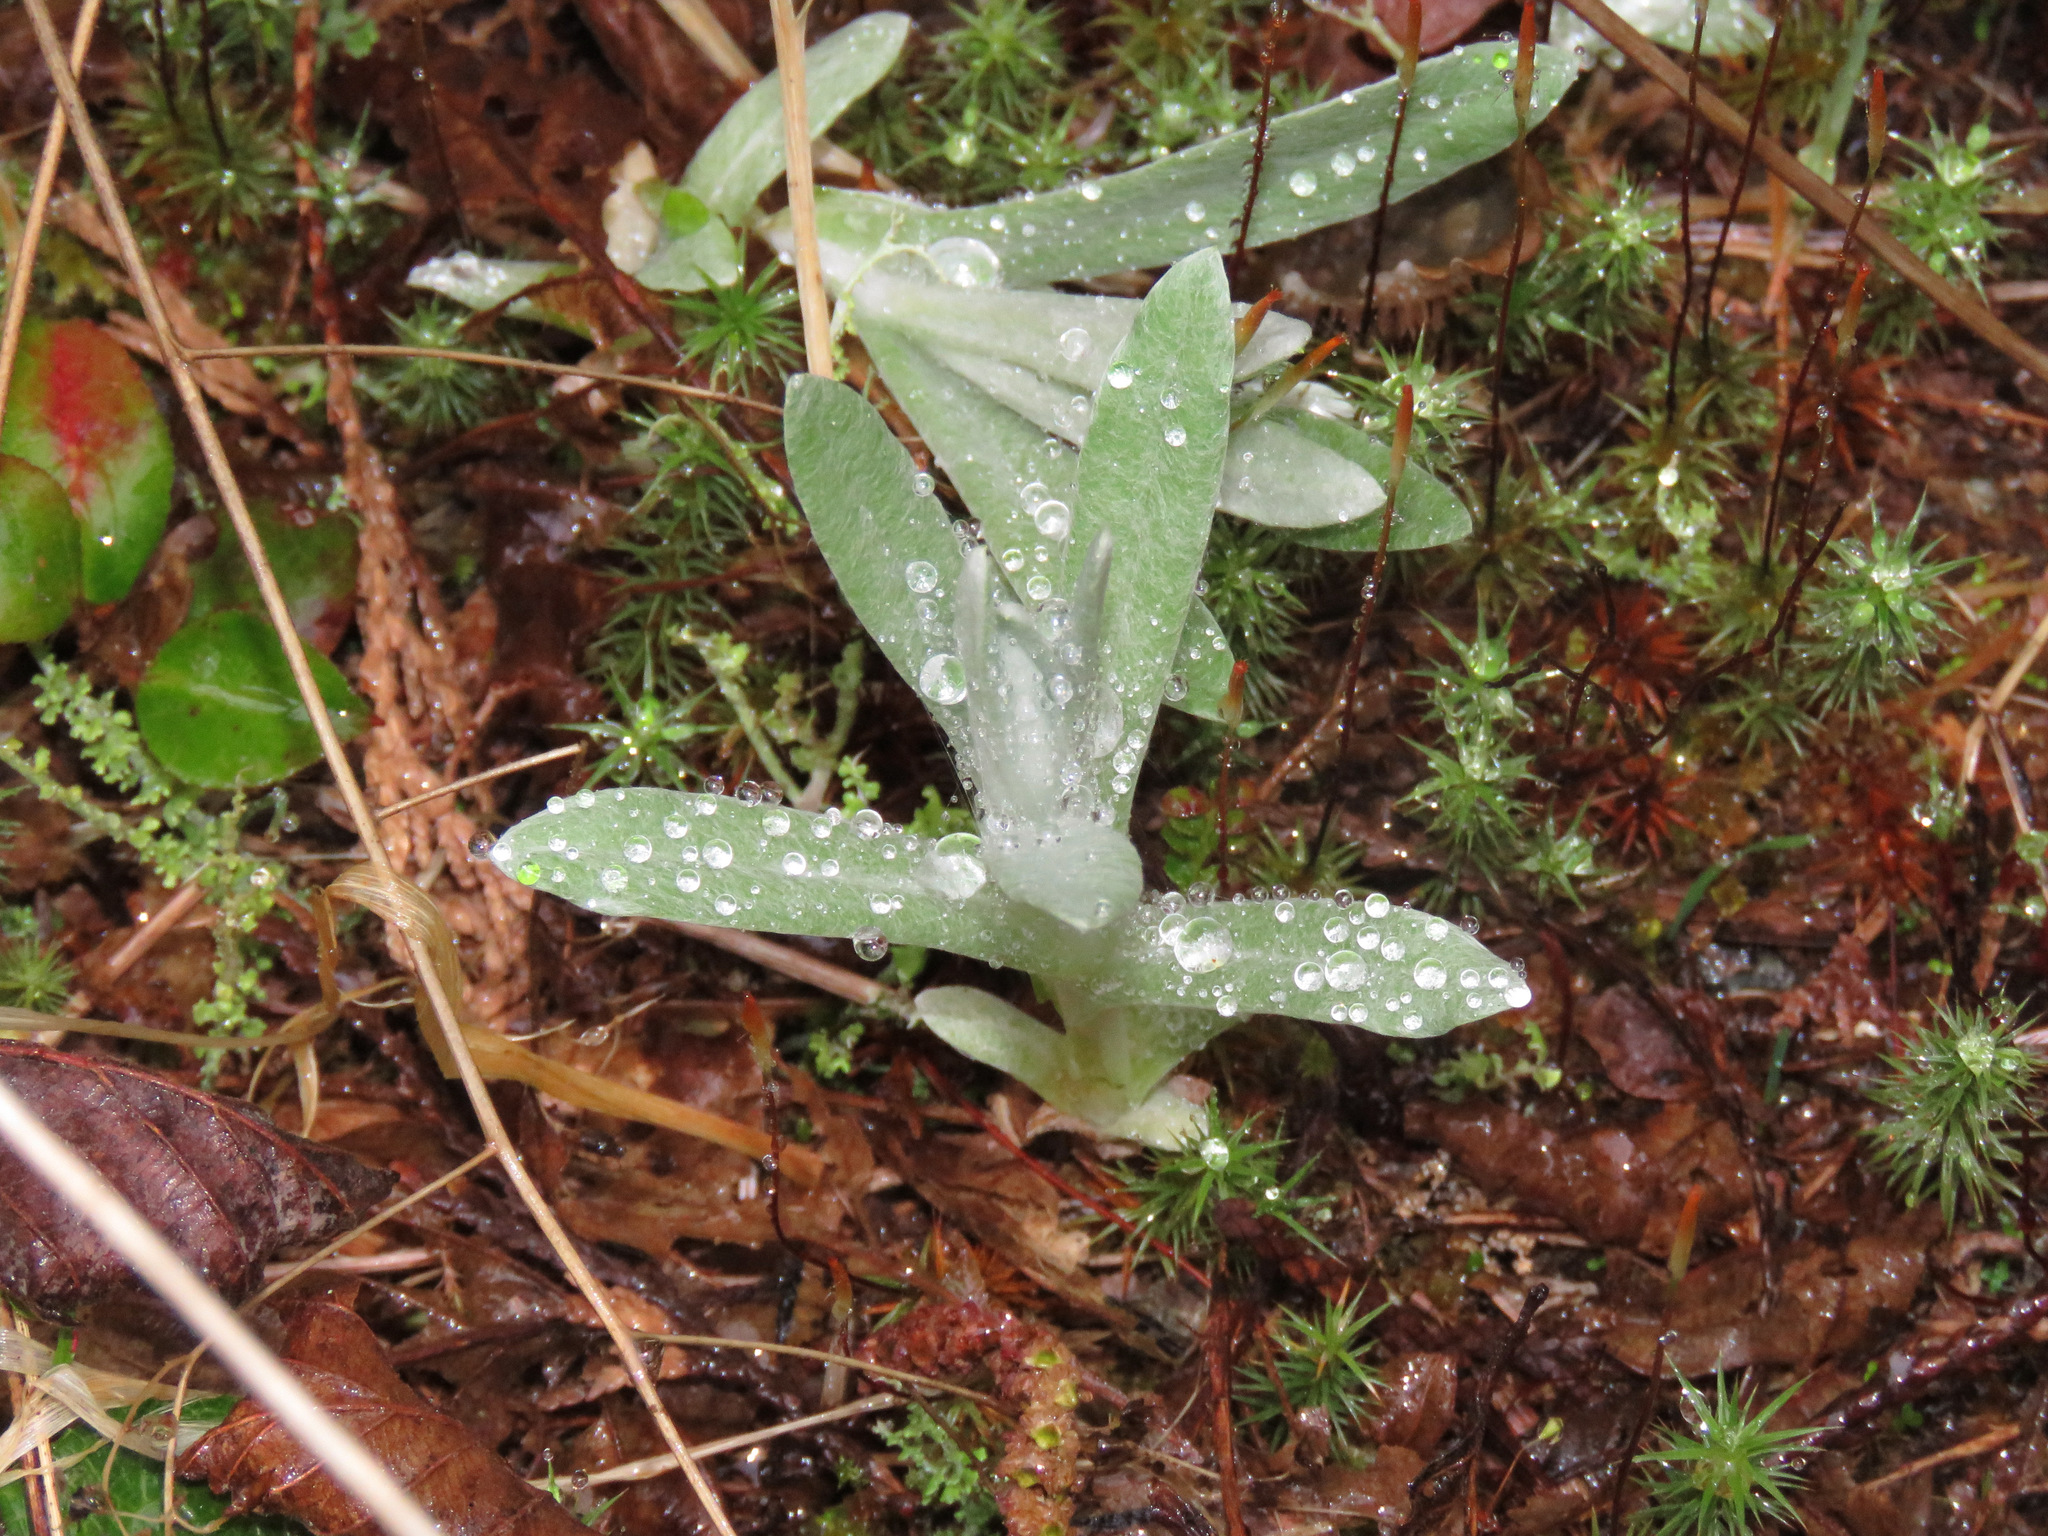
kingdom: Plantae
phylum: Tracheophyta
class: Magnoliopsida
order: Asterales
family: Asteraceae
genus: Anaphalis
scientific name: Anaphalis margaritacea
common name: Pearly everlasting
